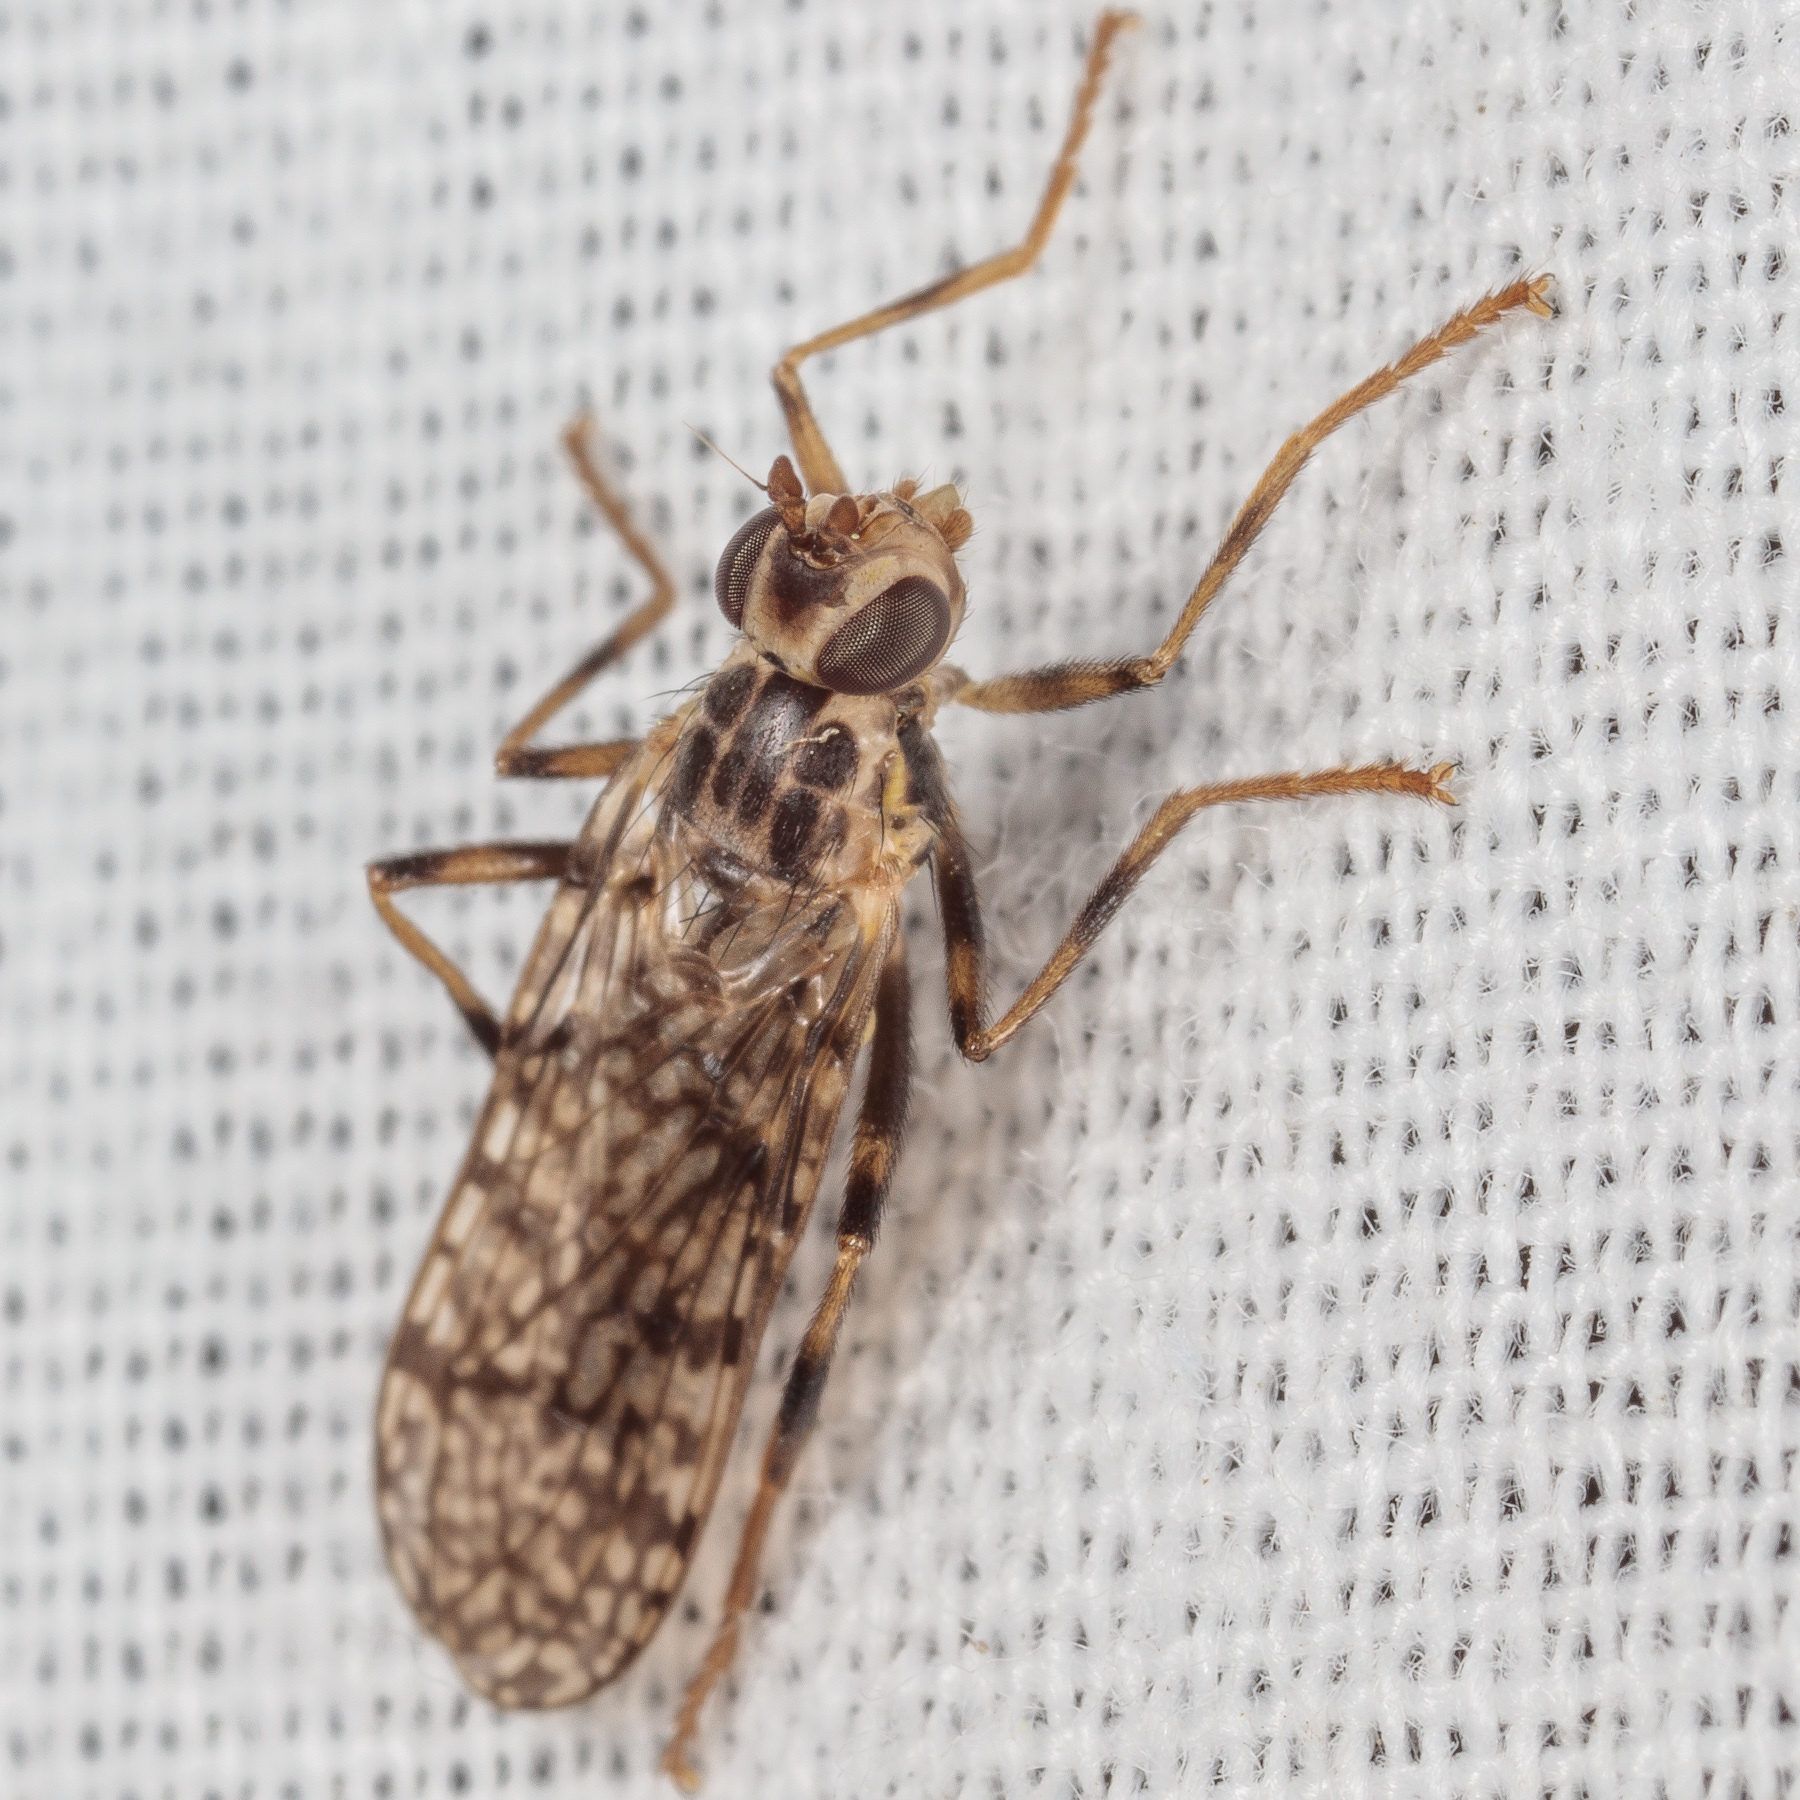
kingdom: Animalia
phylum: Arthropoda
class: Insecta
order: Diptera
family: Pyrgotidae
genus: Boreothrinax
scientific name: Boreothrinax
